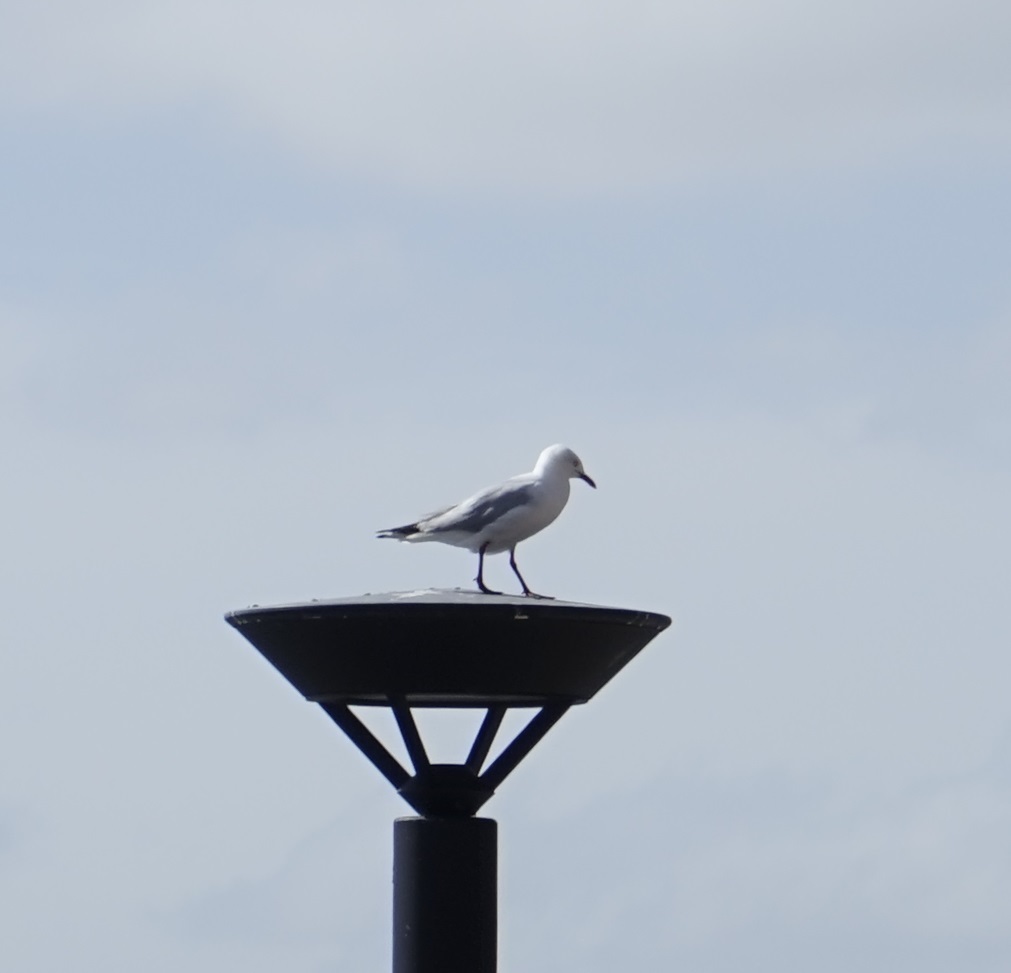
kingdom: Animalia
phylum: Chordata
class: Aves
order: Charadriiformes
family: Laridae
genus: Chroicocephalus
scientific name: Chroicocephalus novaehollandiae
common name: Silver gull
